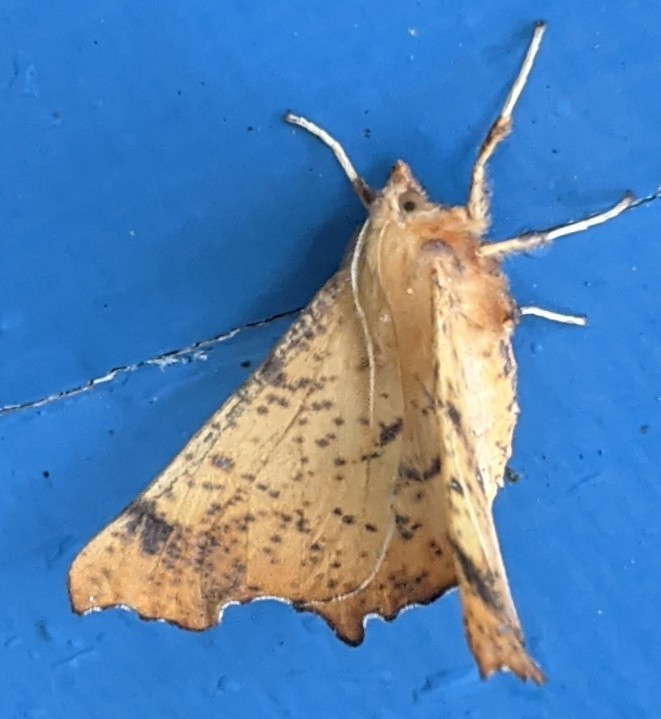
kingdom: Animalia
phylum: Arthropoda
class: Insecta
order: Lepidoptera
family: Geometridae
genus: Ennomos
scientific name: Ennomos magnaria
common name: Maple spanworm
